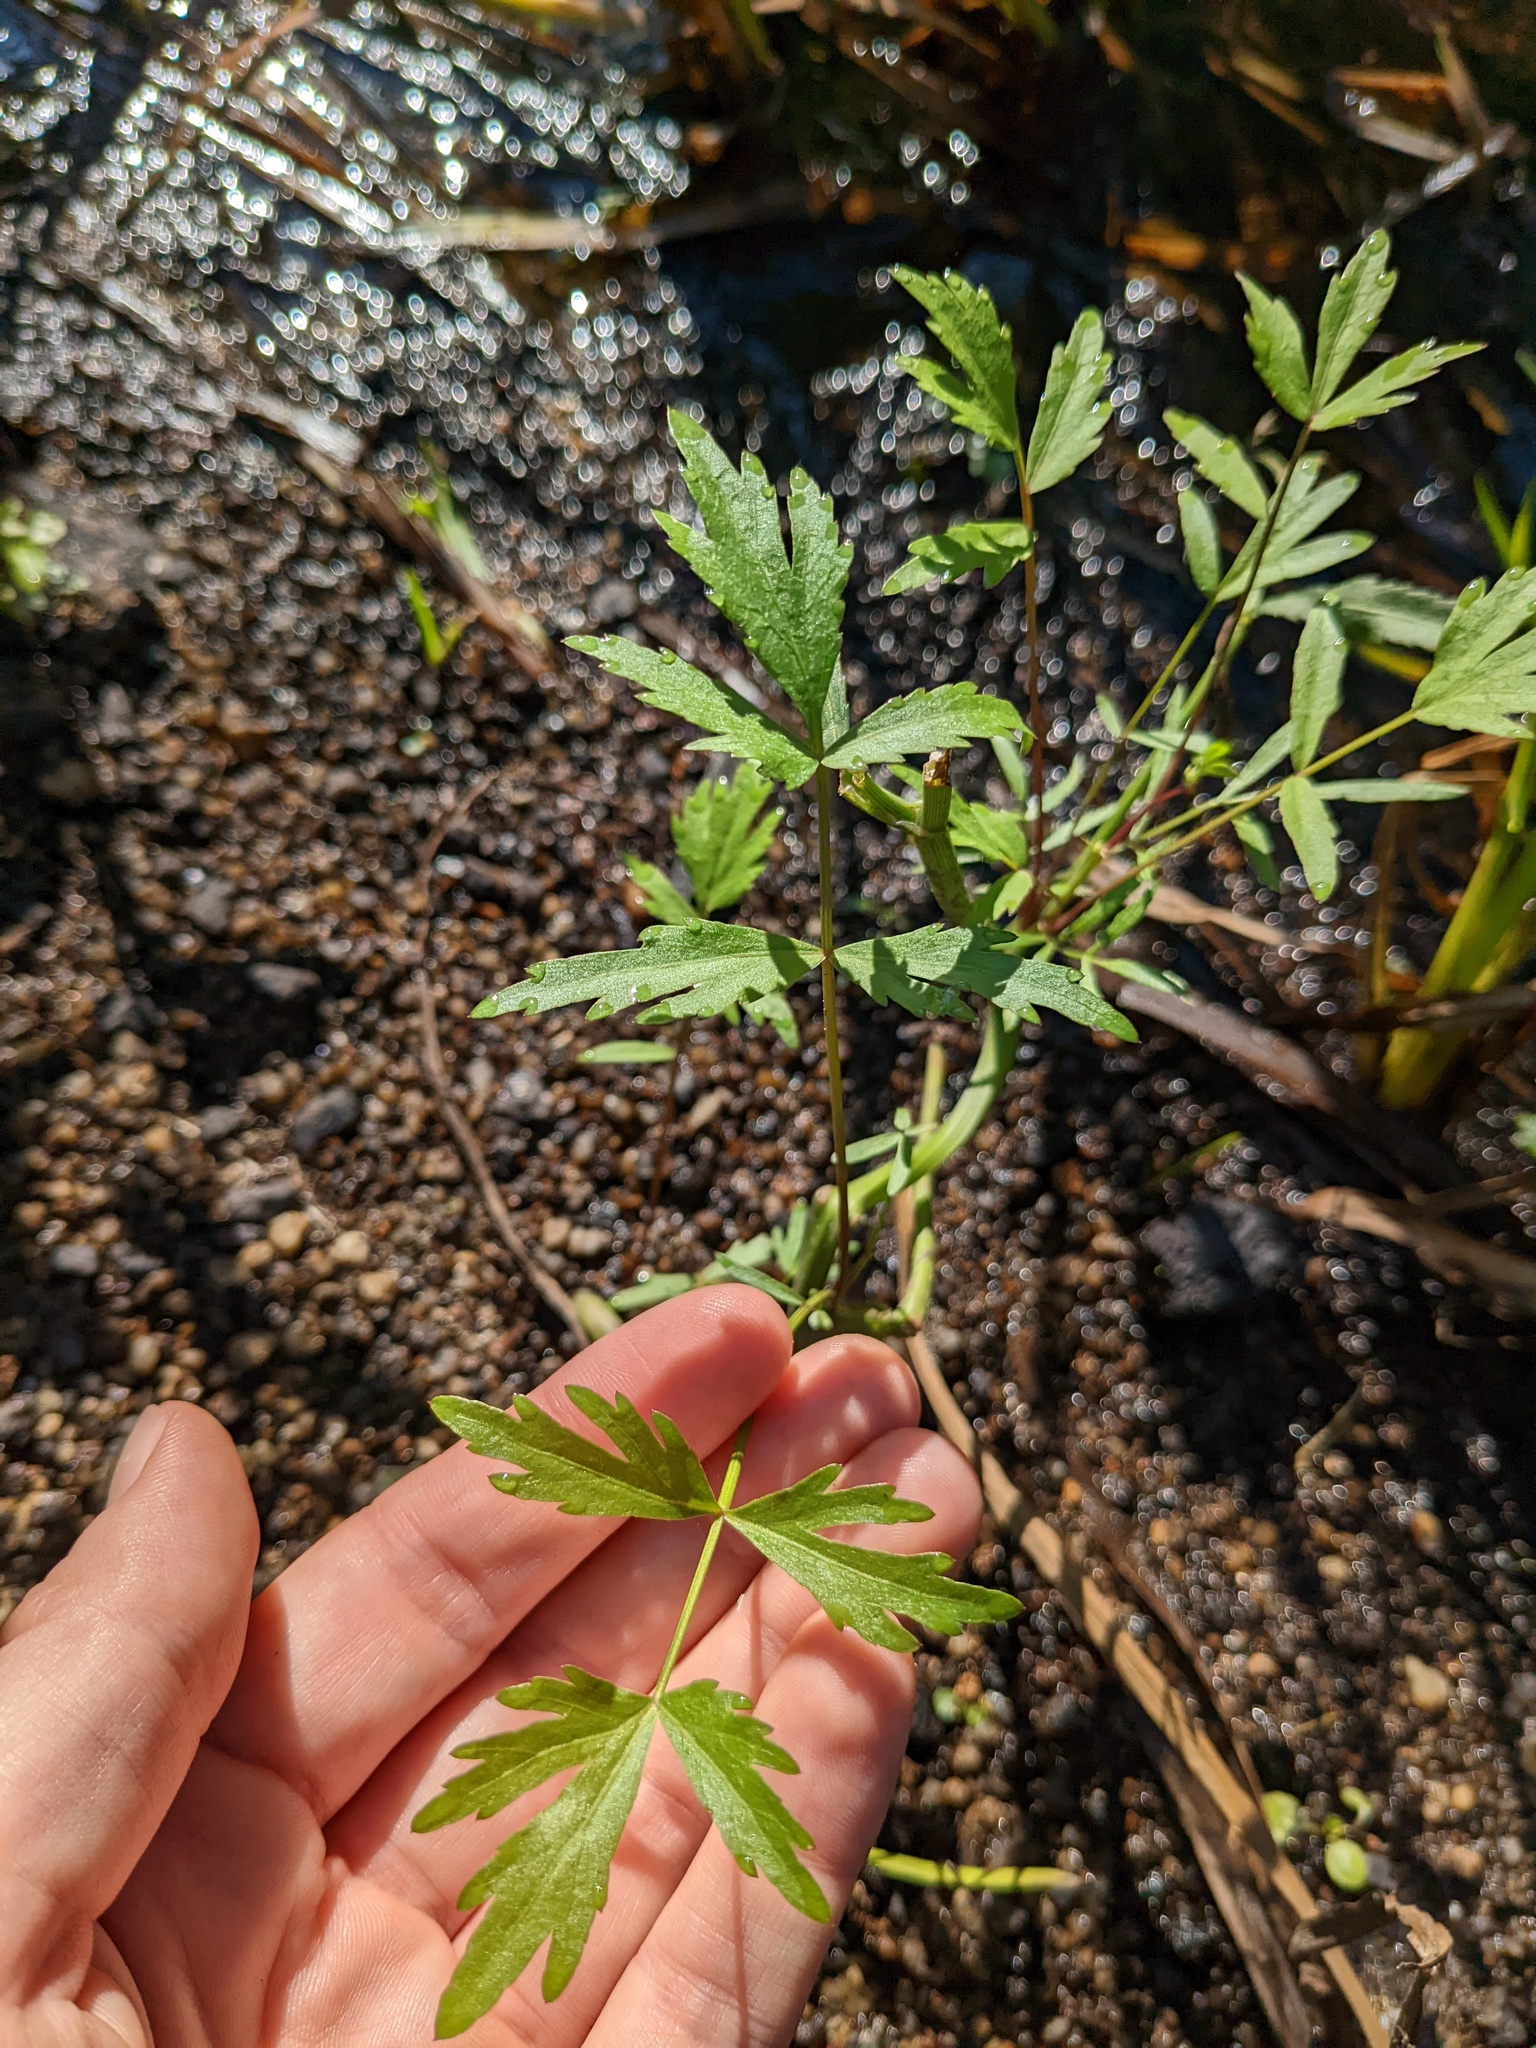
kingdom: Plantae
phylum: Tracheophyta
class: Magnoliopsida
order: Apiales
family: Apiaceae
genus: Sium
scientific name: Sium suave
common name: Hemlock water-parsnip
